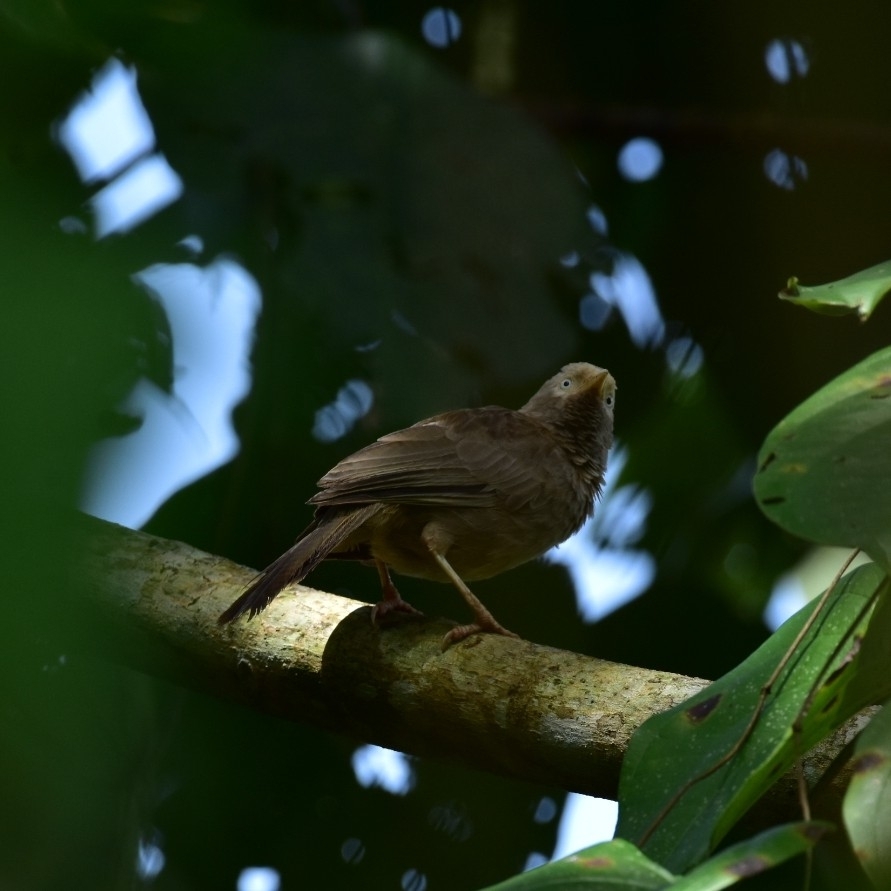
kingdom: Animalia
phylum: Chordata
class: Aves
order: Passeriformes
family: Leiothrichidae
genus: Turdoides
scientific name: Turdoides affinis
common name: Yellow-billed babbler
